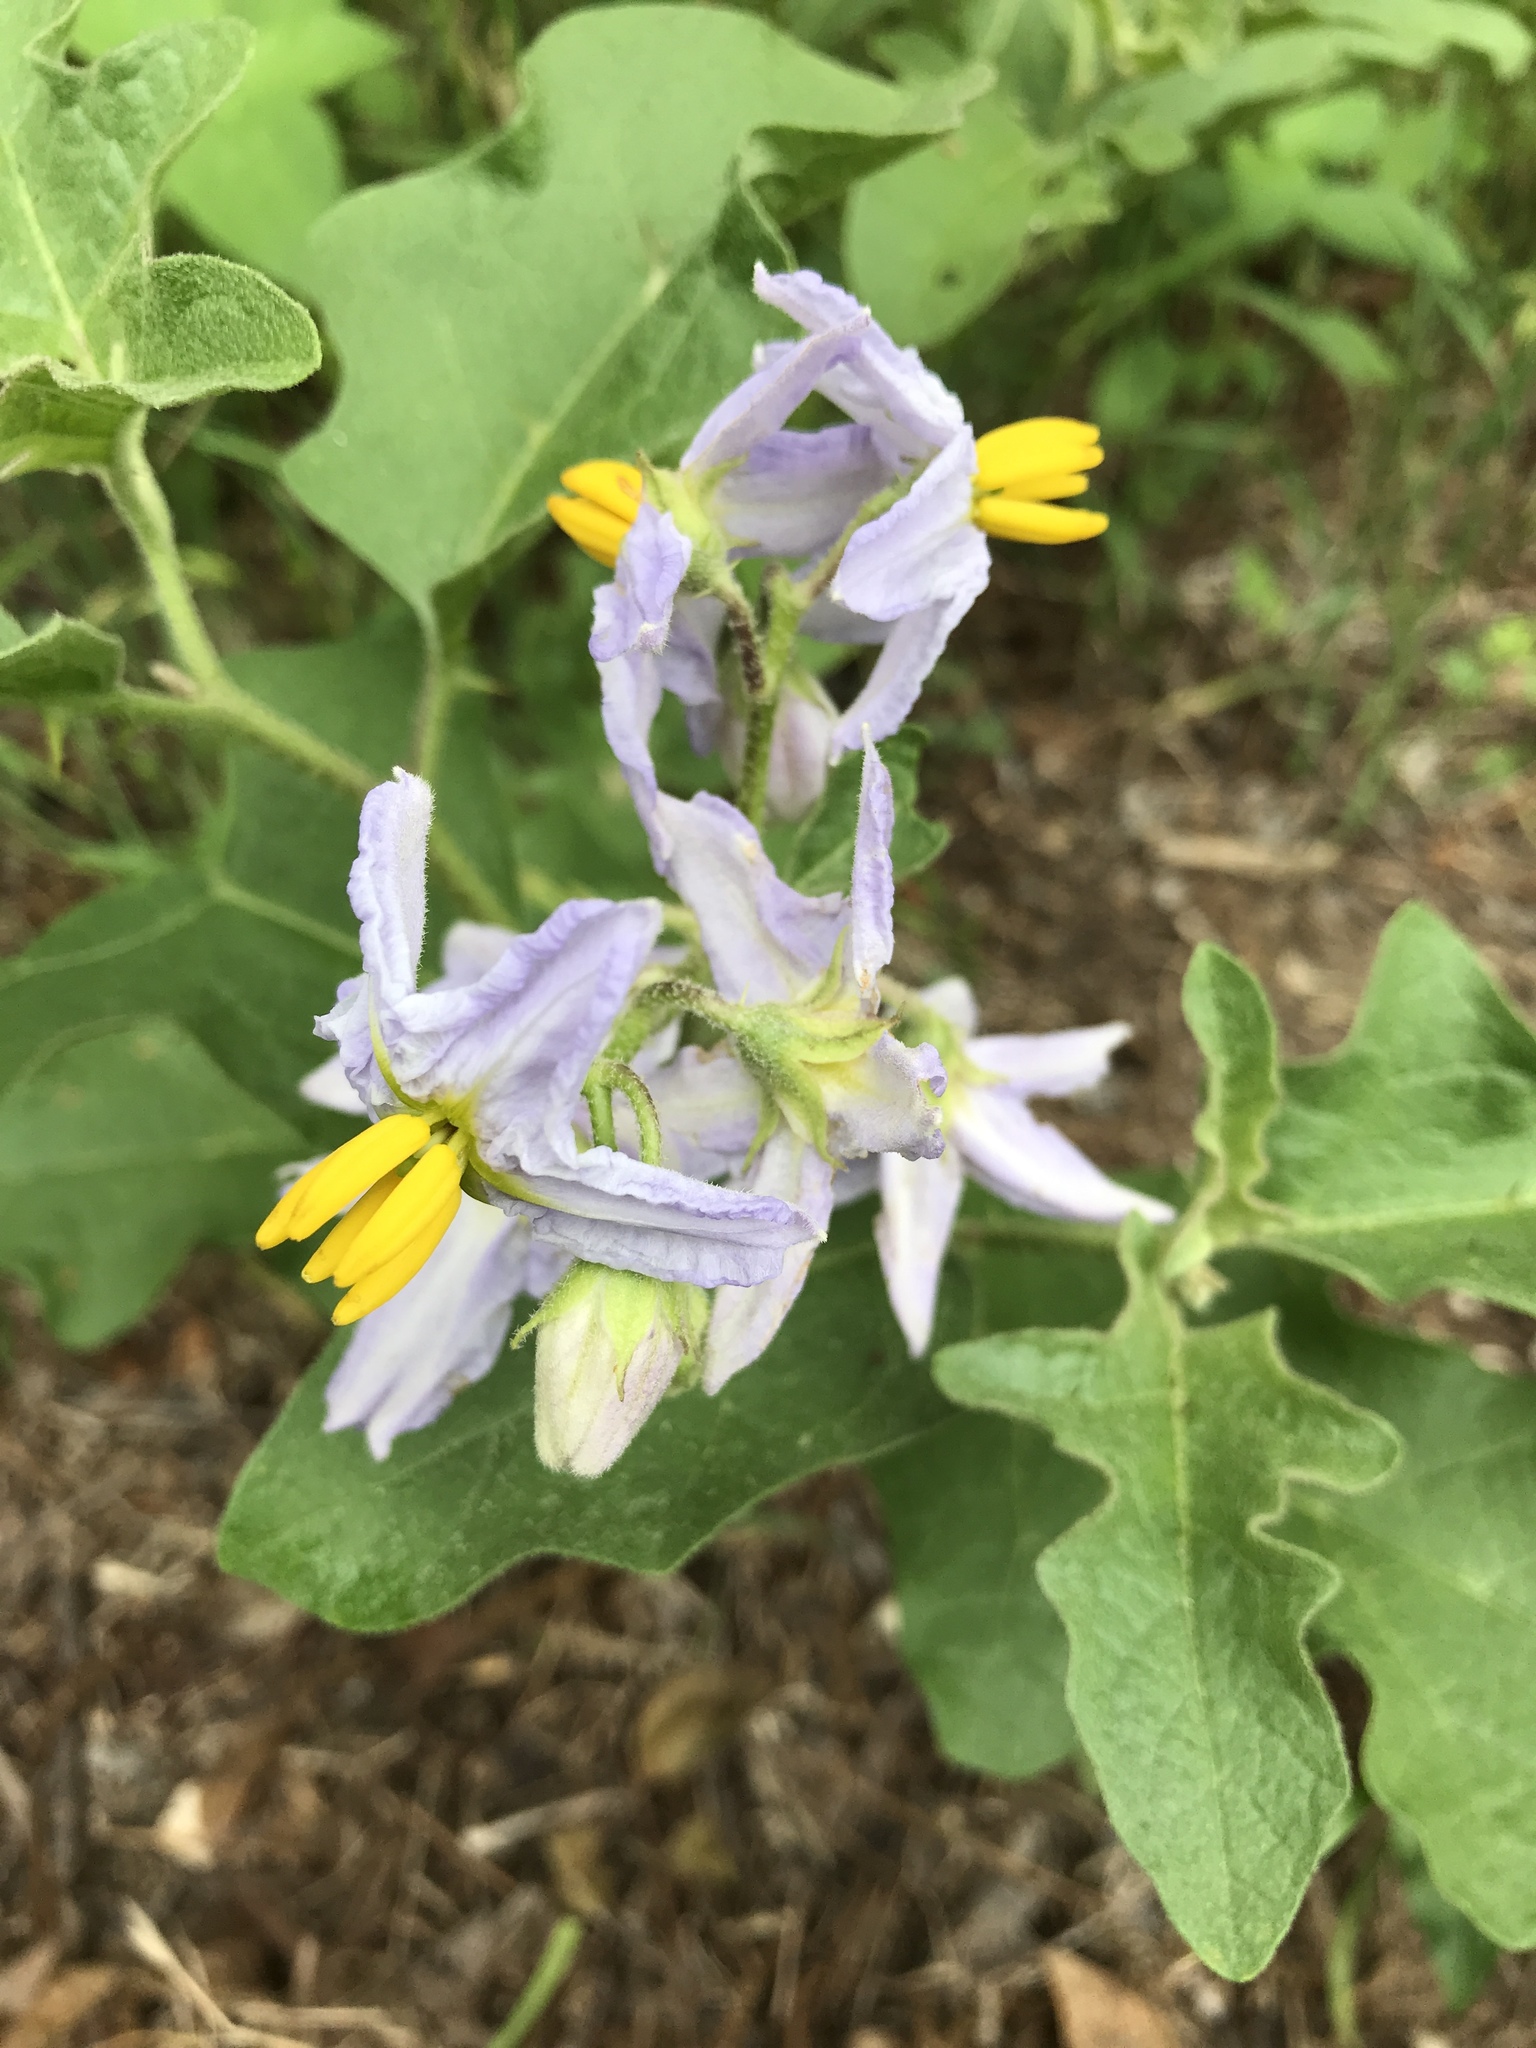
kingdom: Plantae
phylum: Tracheophyta
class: Magnoliopsida
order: Solanales
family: Solanaceae
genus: Solanum
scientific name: Solanum dimidiatum
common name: Carolina horse-nettle
